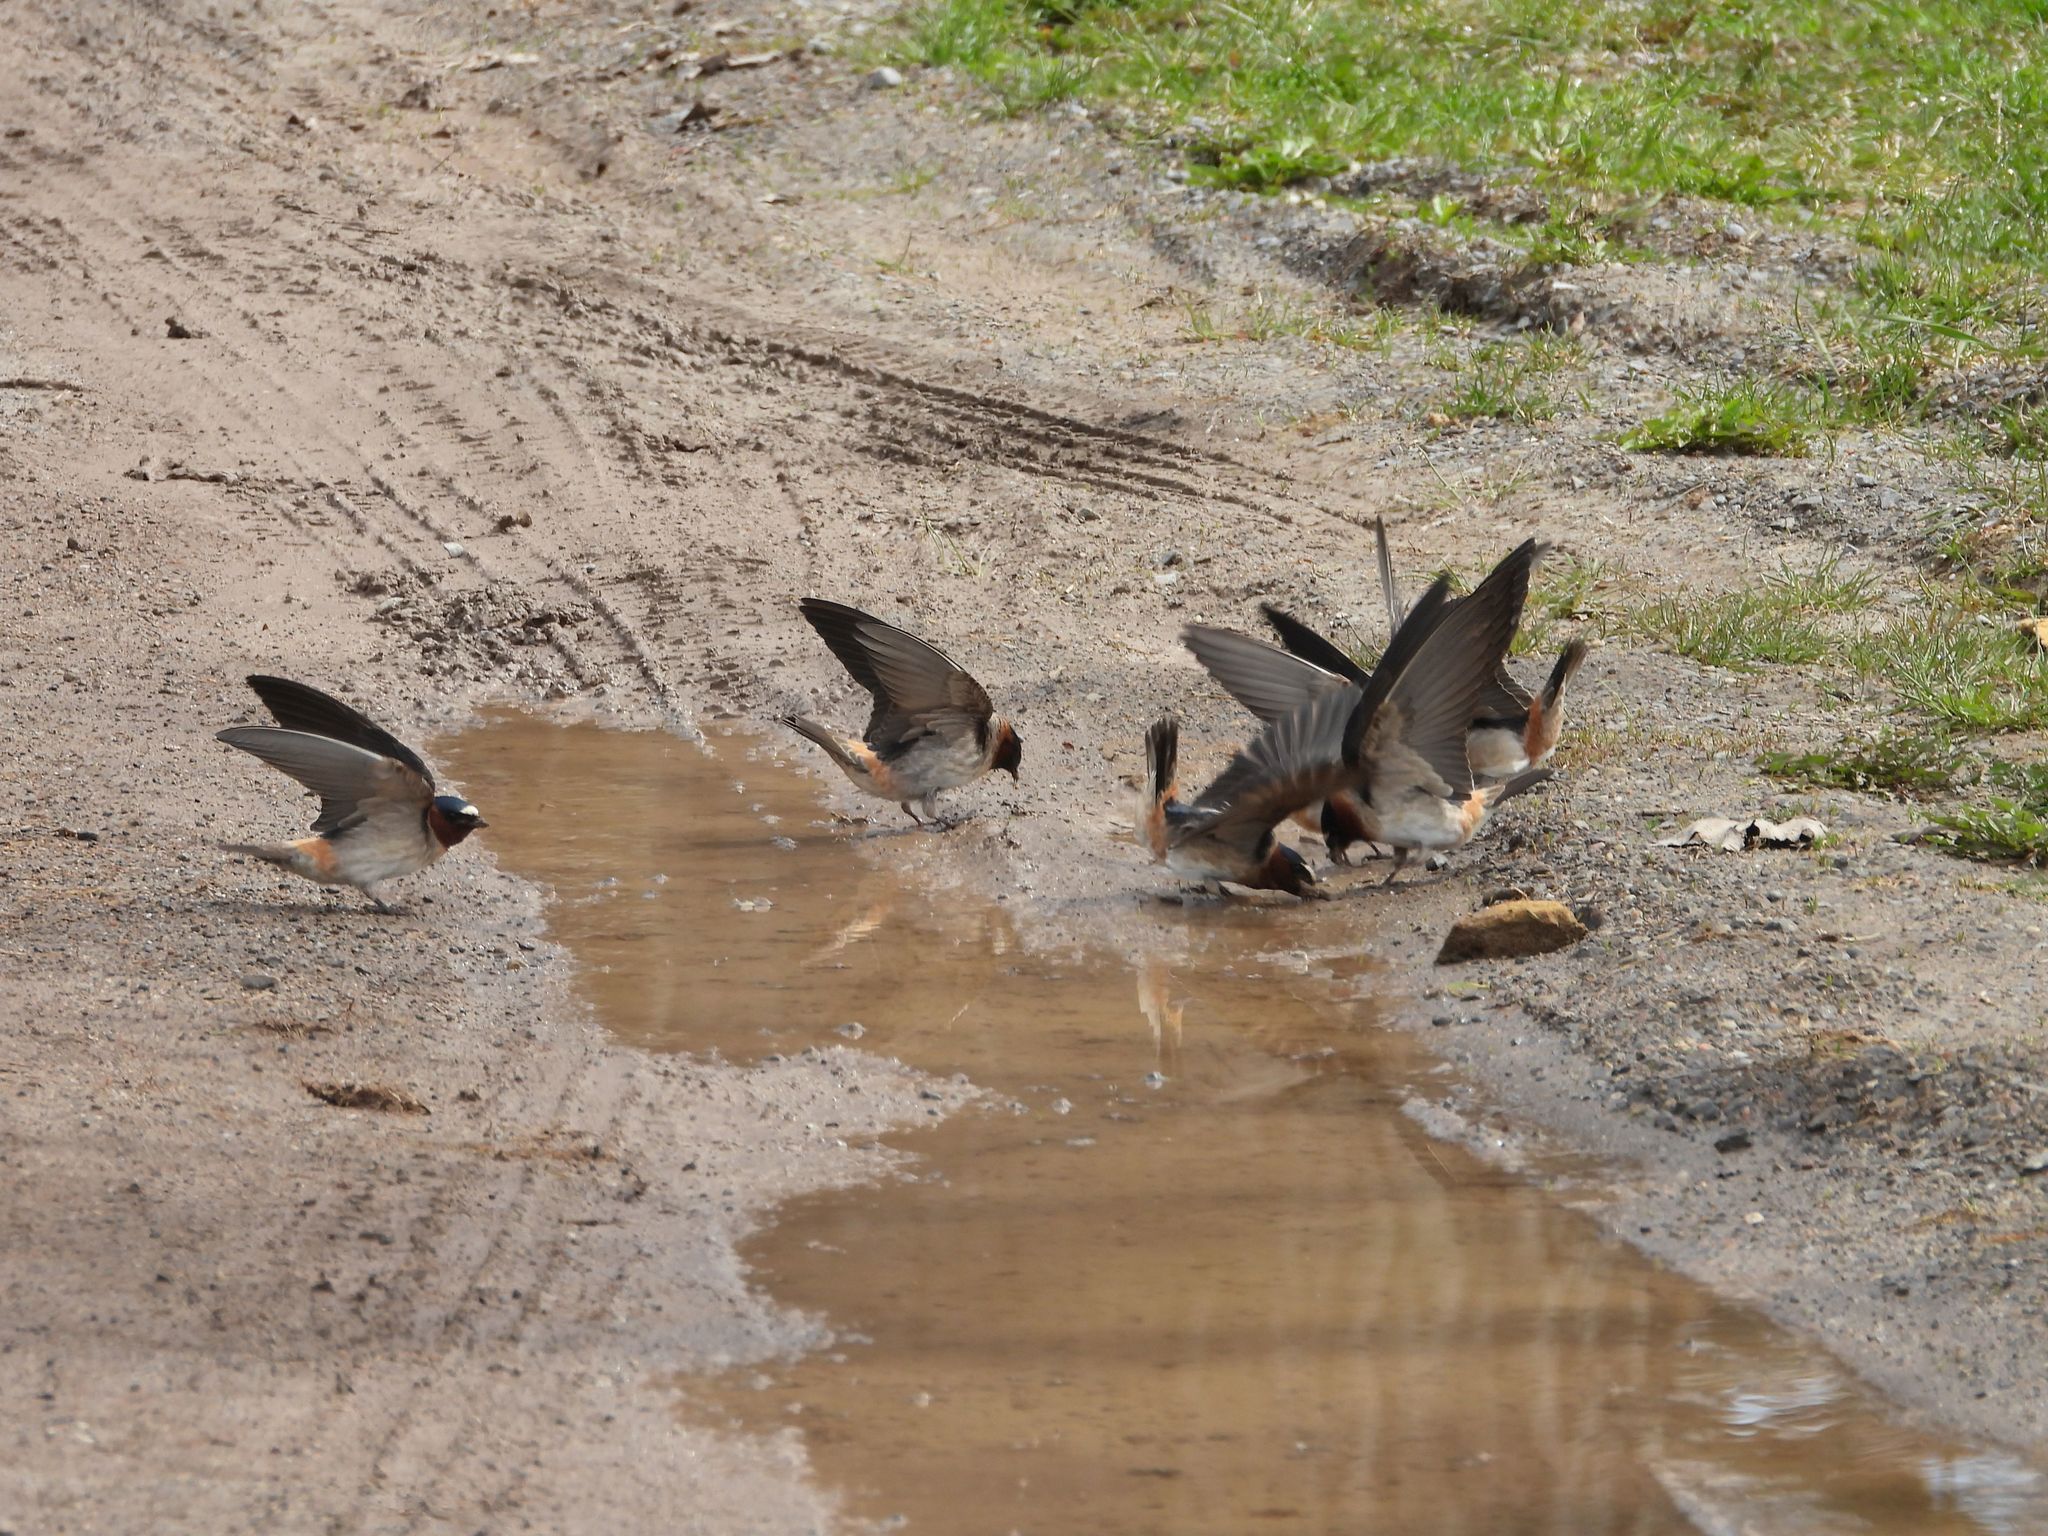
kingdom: Animalia
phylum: Chordata
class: Aves
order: Passeriformes
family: Hirundinidae
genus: Petrochelidon
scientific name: Petrochelidon pyrrhonota
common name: American cliff swallow
